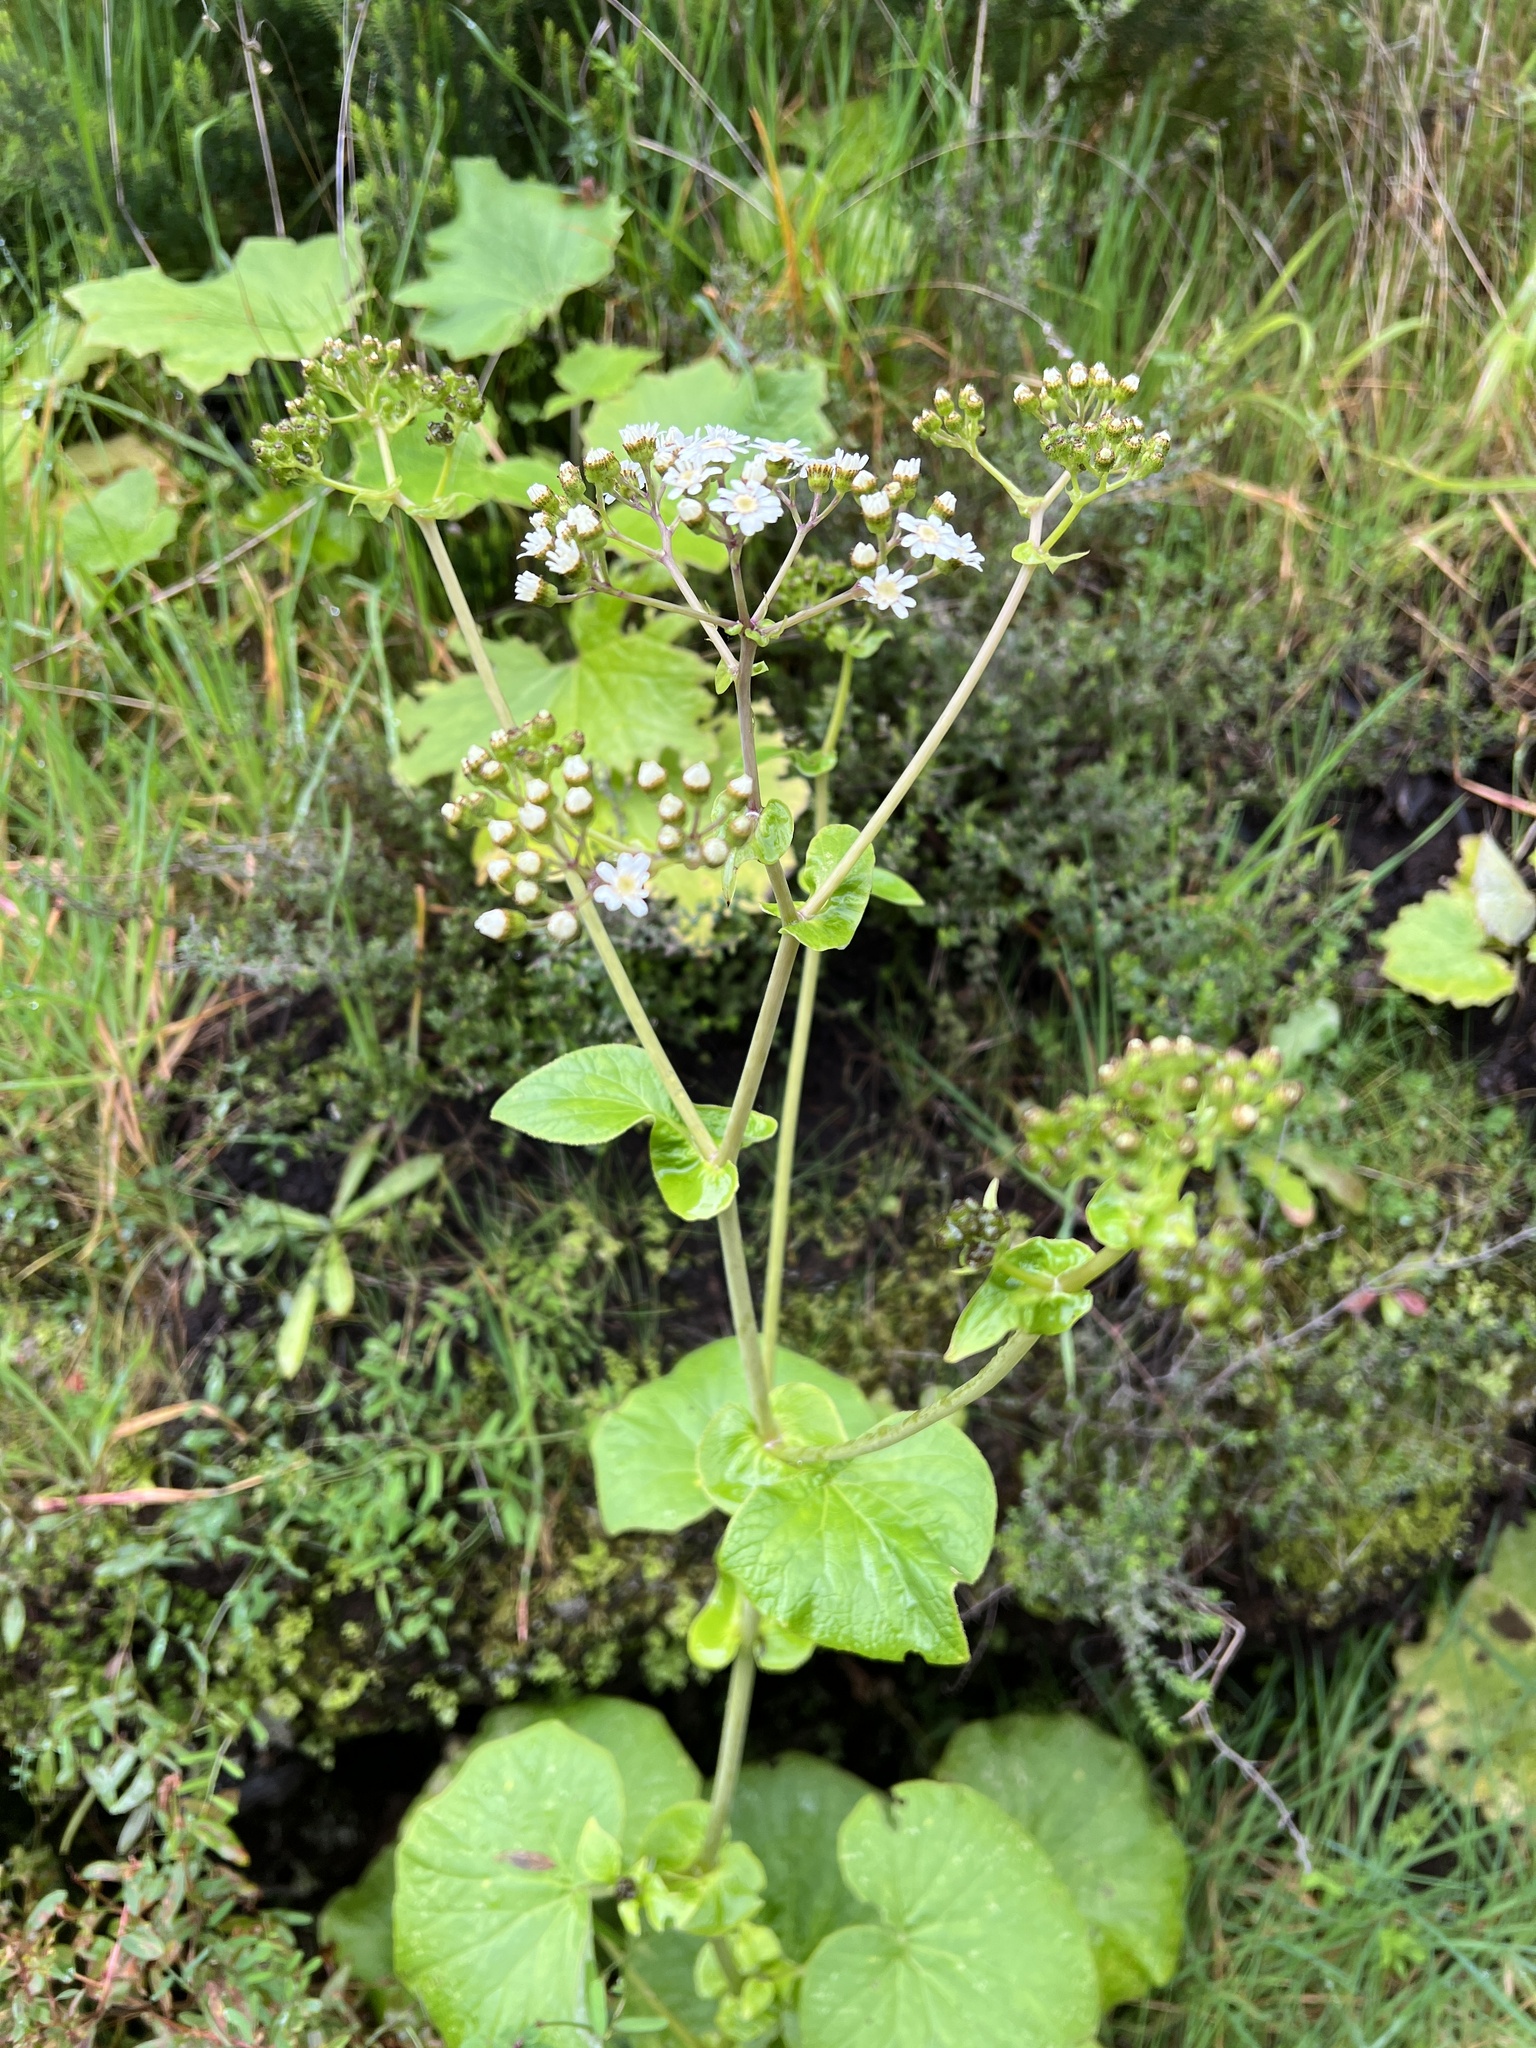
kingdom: Plantae
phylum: Tracheophyta
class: Magnoliopsida
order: Asterales
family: Asteraceae
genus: Pericallis
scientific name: Pericallis murrayi
